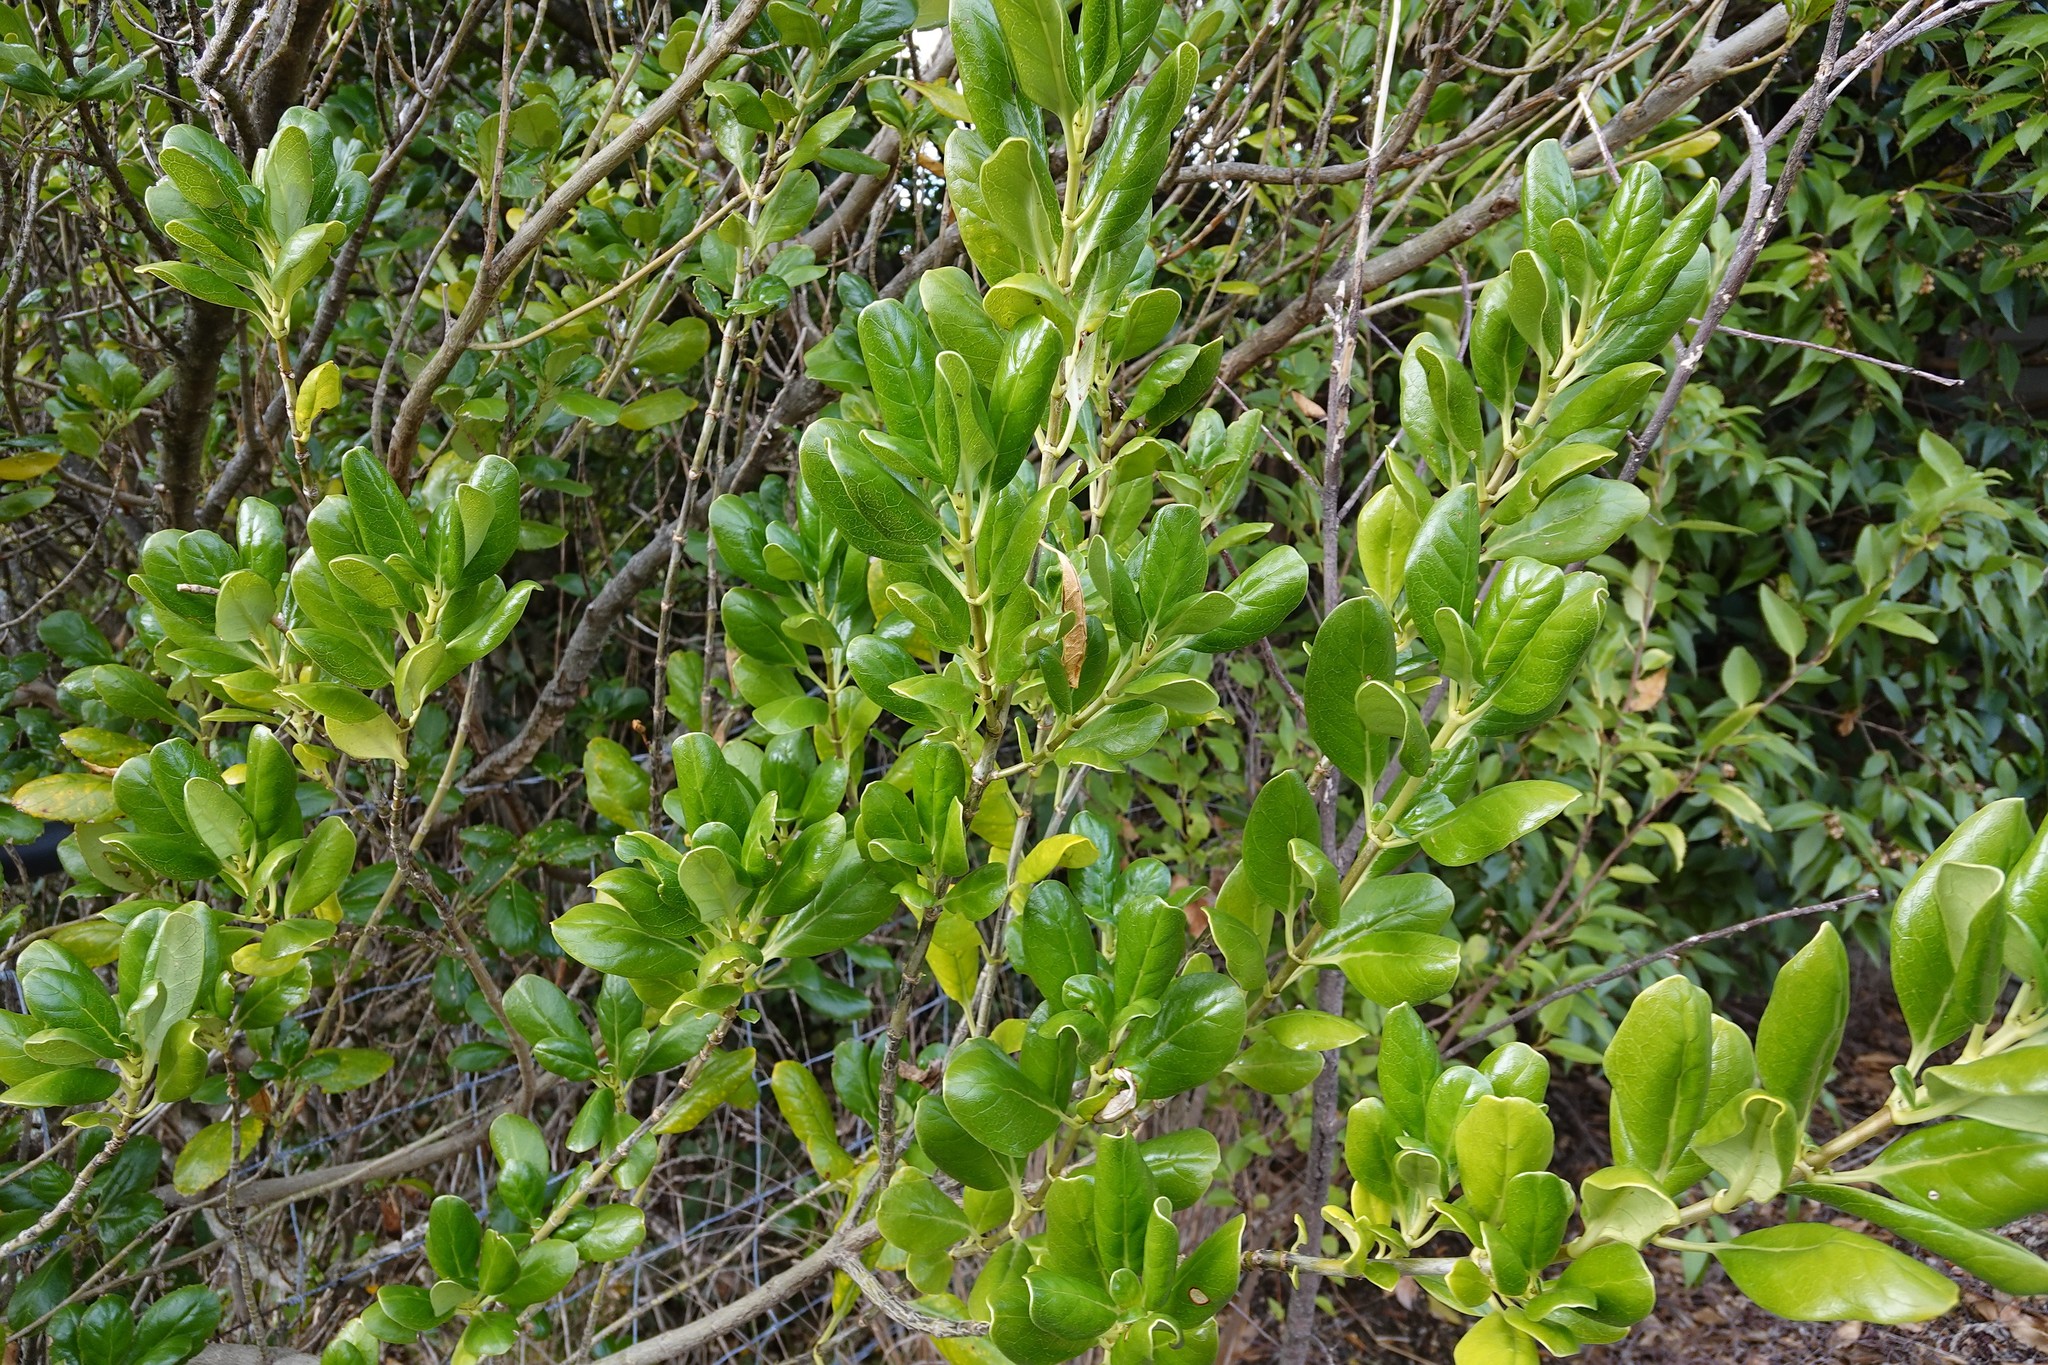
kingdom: Plantae
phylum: Tracheophyta
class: Magnoliopsida
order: Gentianales
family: Rubiaceae
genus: Coprosma
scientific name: Coprosma repens
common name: Tree bedstraw
